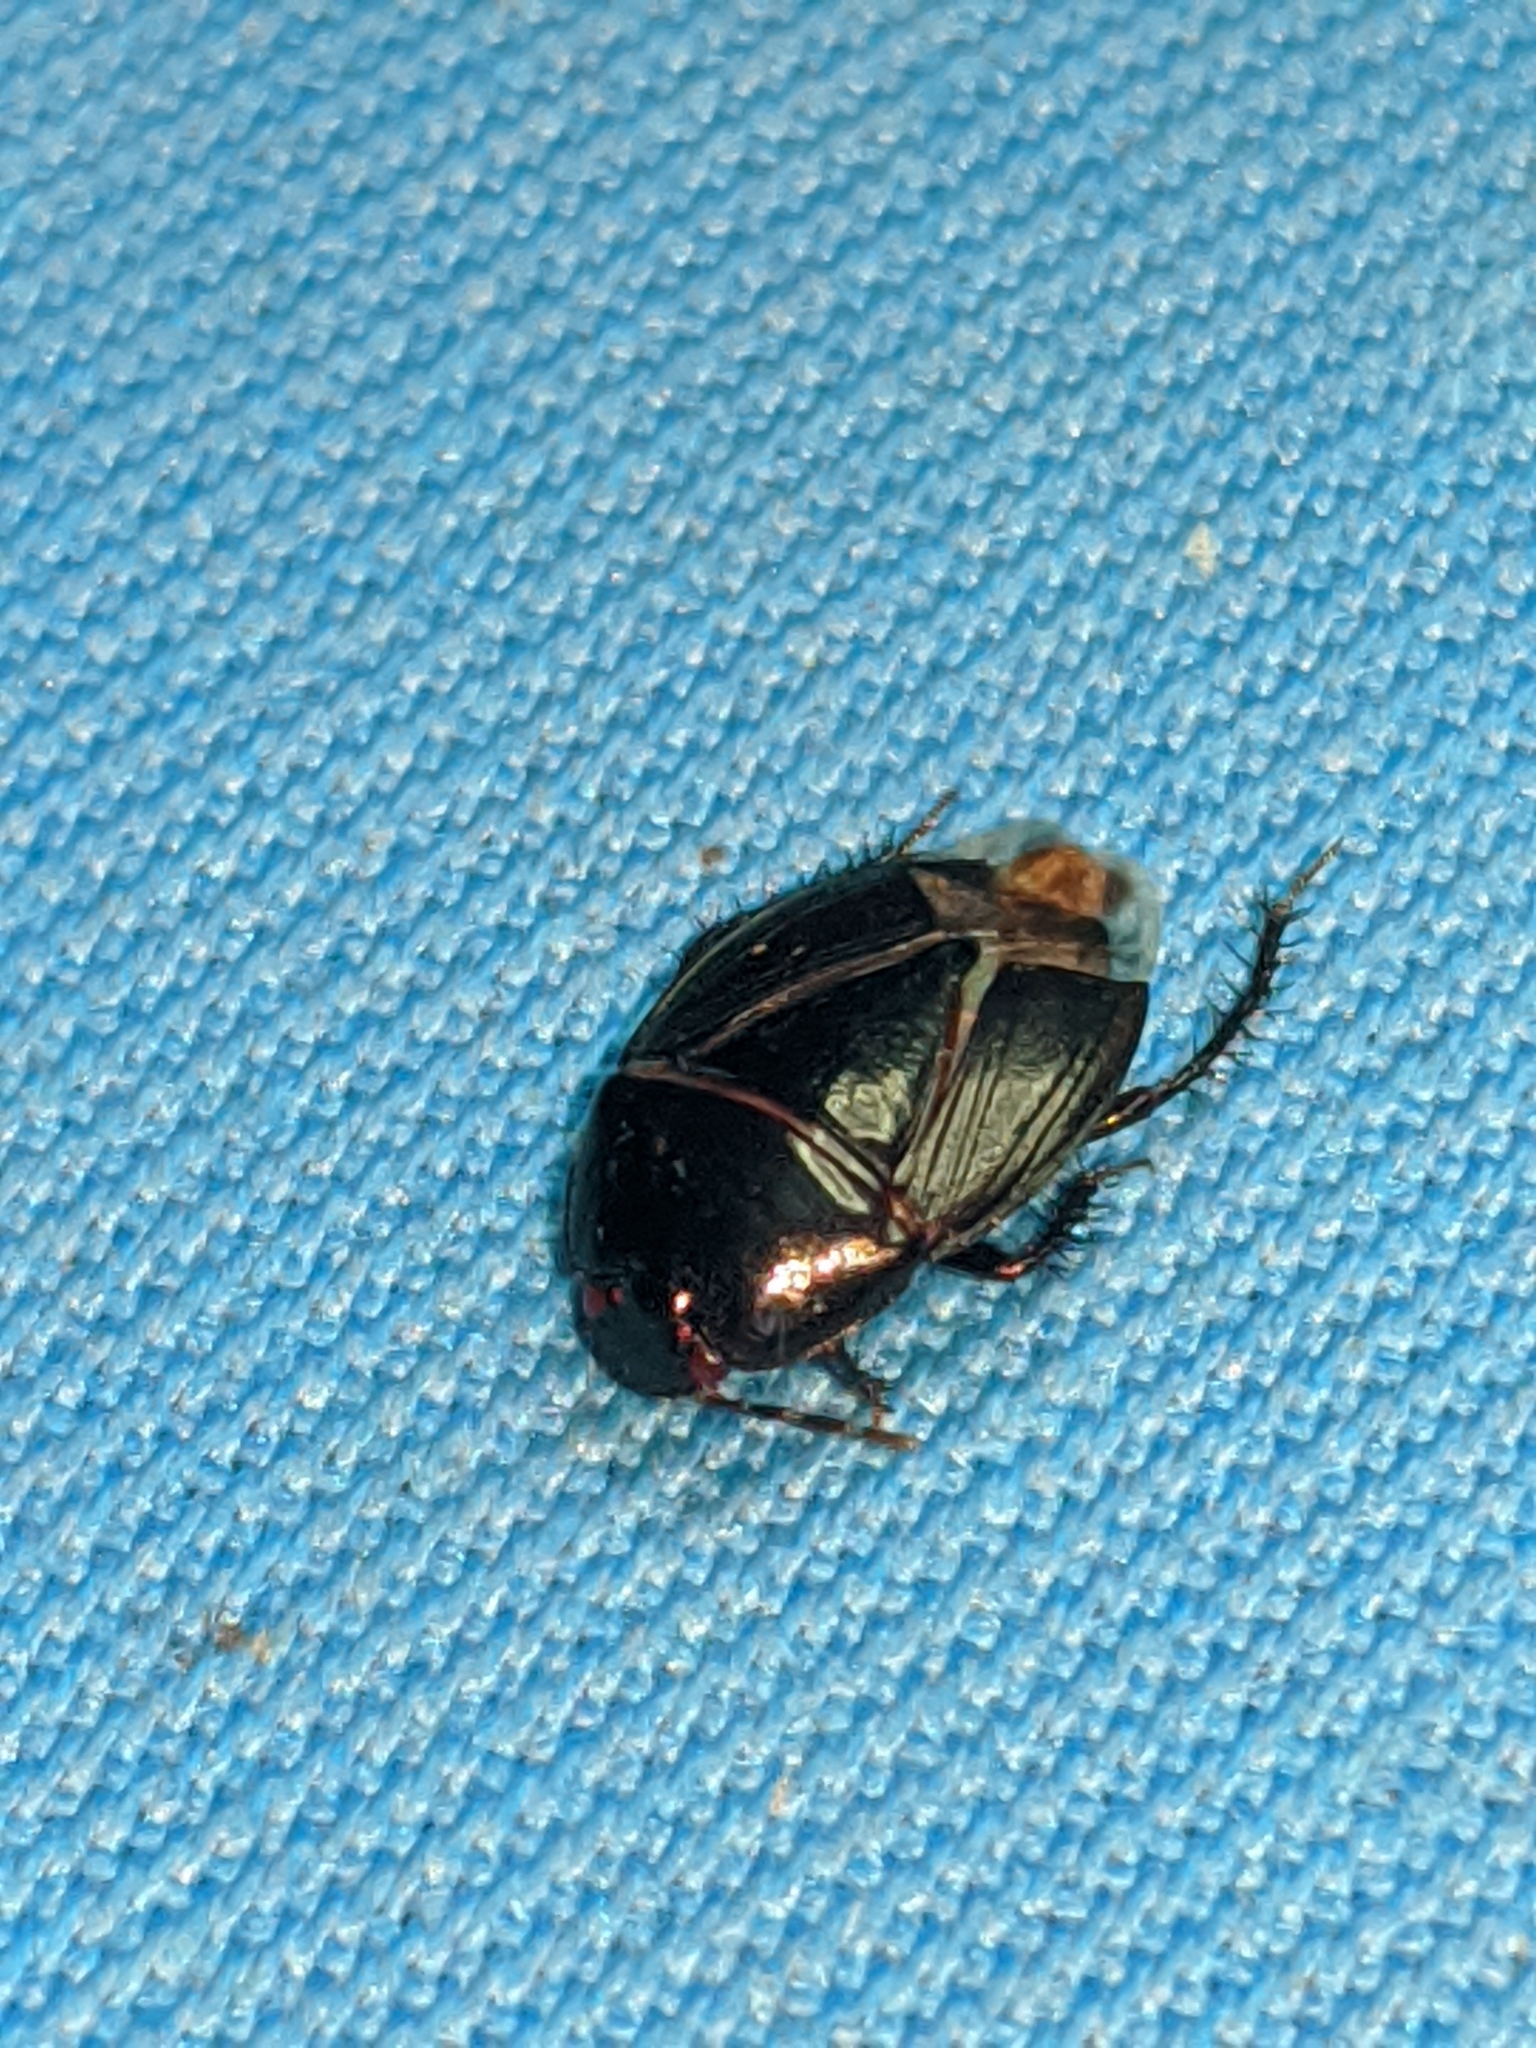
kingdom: Animalia
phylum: Arthropoda
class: Insecta
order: Hemiptera
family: Cydnidae
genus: Macroscytus
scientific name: Macroscytus brunneus
